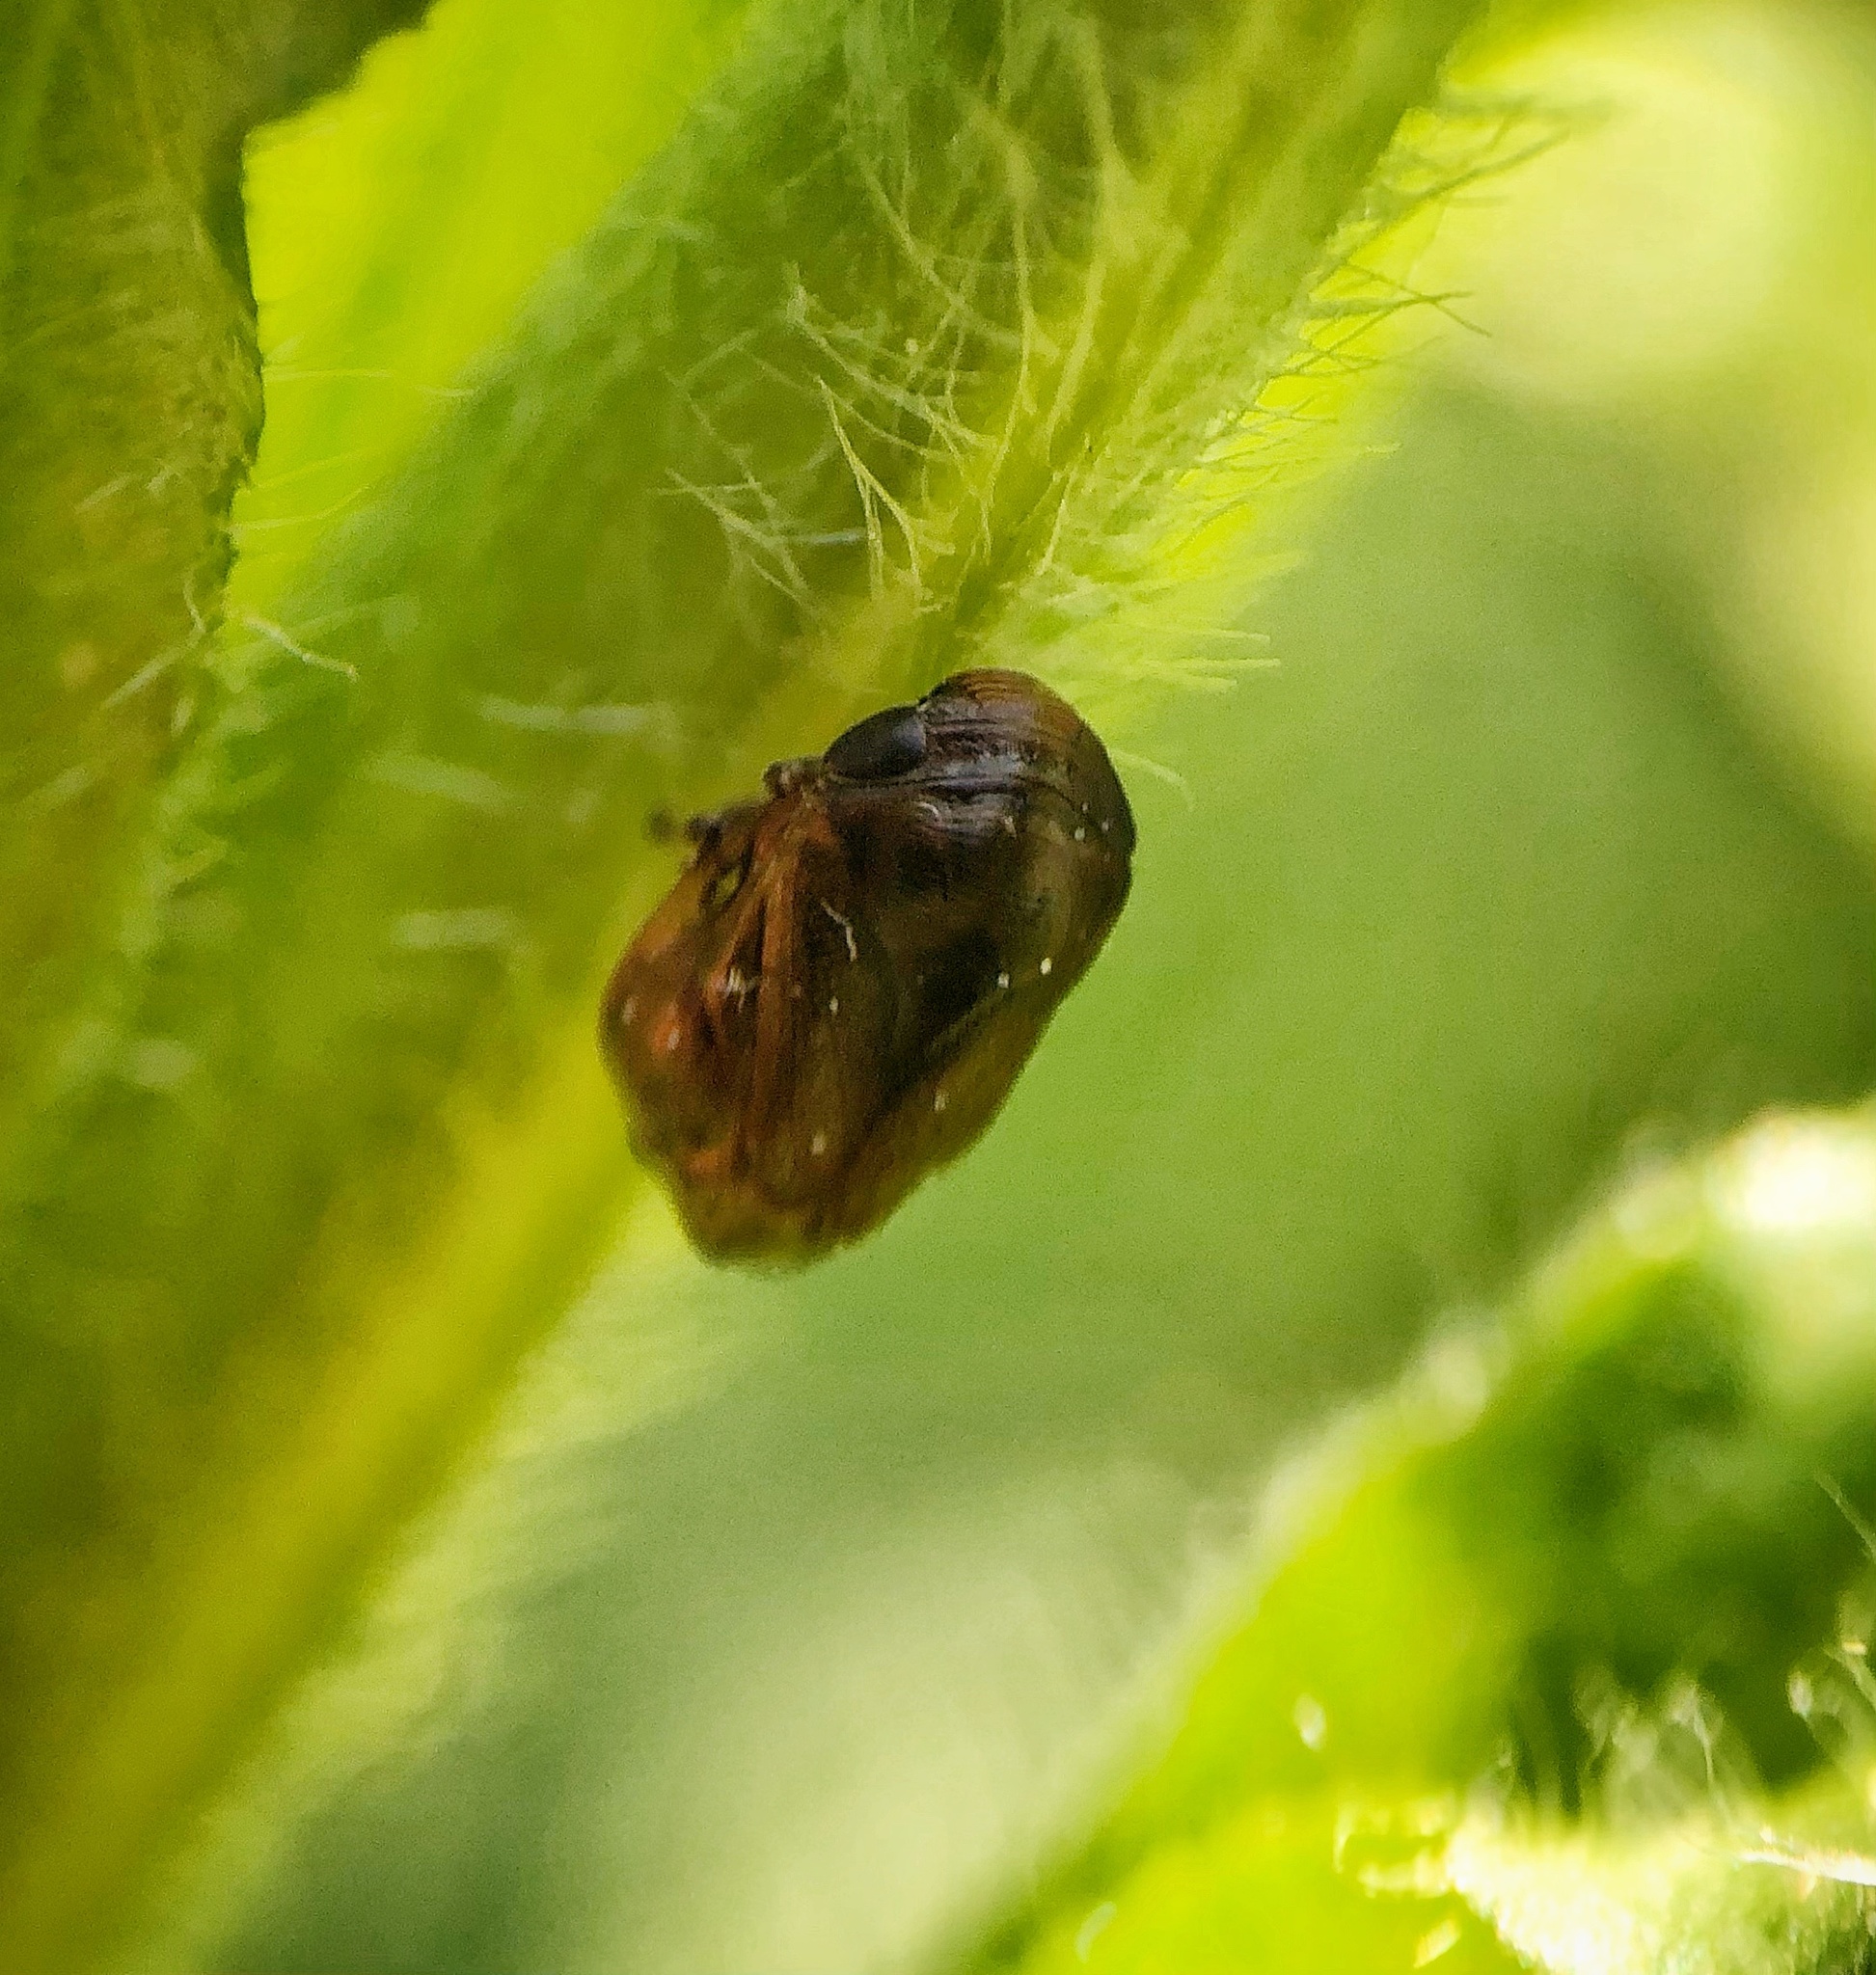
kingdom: Animalia
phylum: Arthropoda
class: Insecta
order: Hemiptera
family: Clastopteridae
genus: Clastoptera
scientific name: Clastoptera xanthocephala
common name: Sunflower spittlebug
